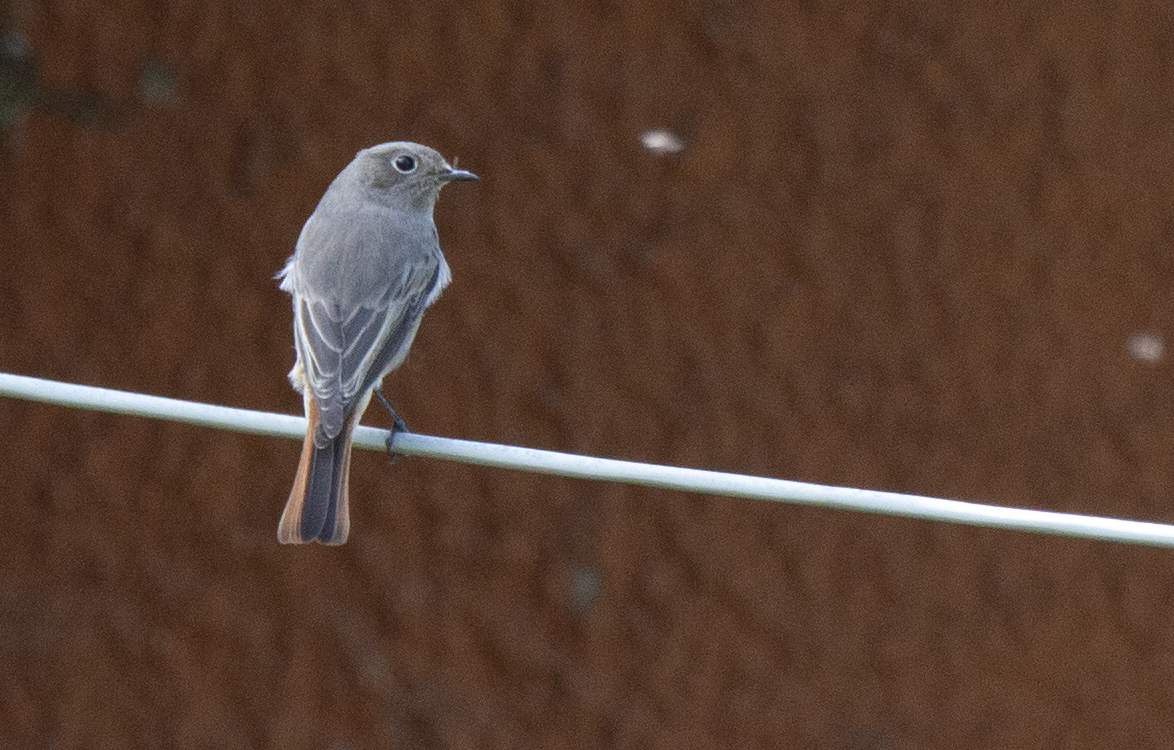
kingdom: Animalia
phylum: Chordata
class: Aves
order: Passeriformes
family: Muscicapidae
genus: Phoenicurus
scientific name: Phoenicurus ochruros
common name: Black redstart
